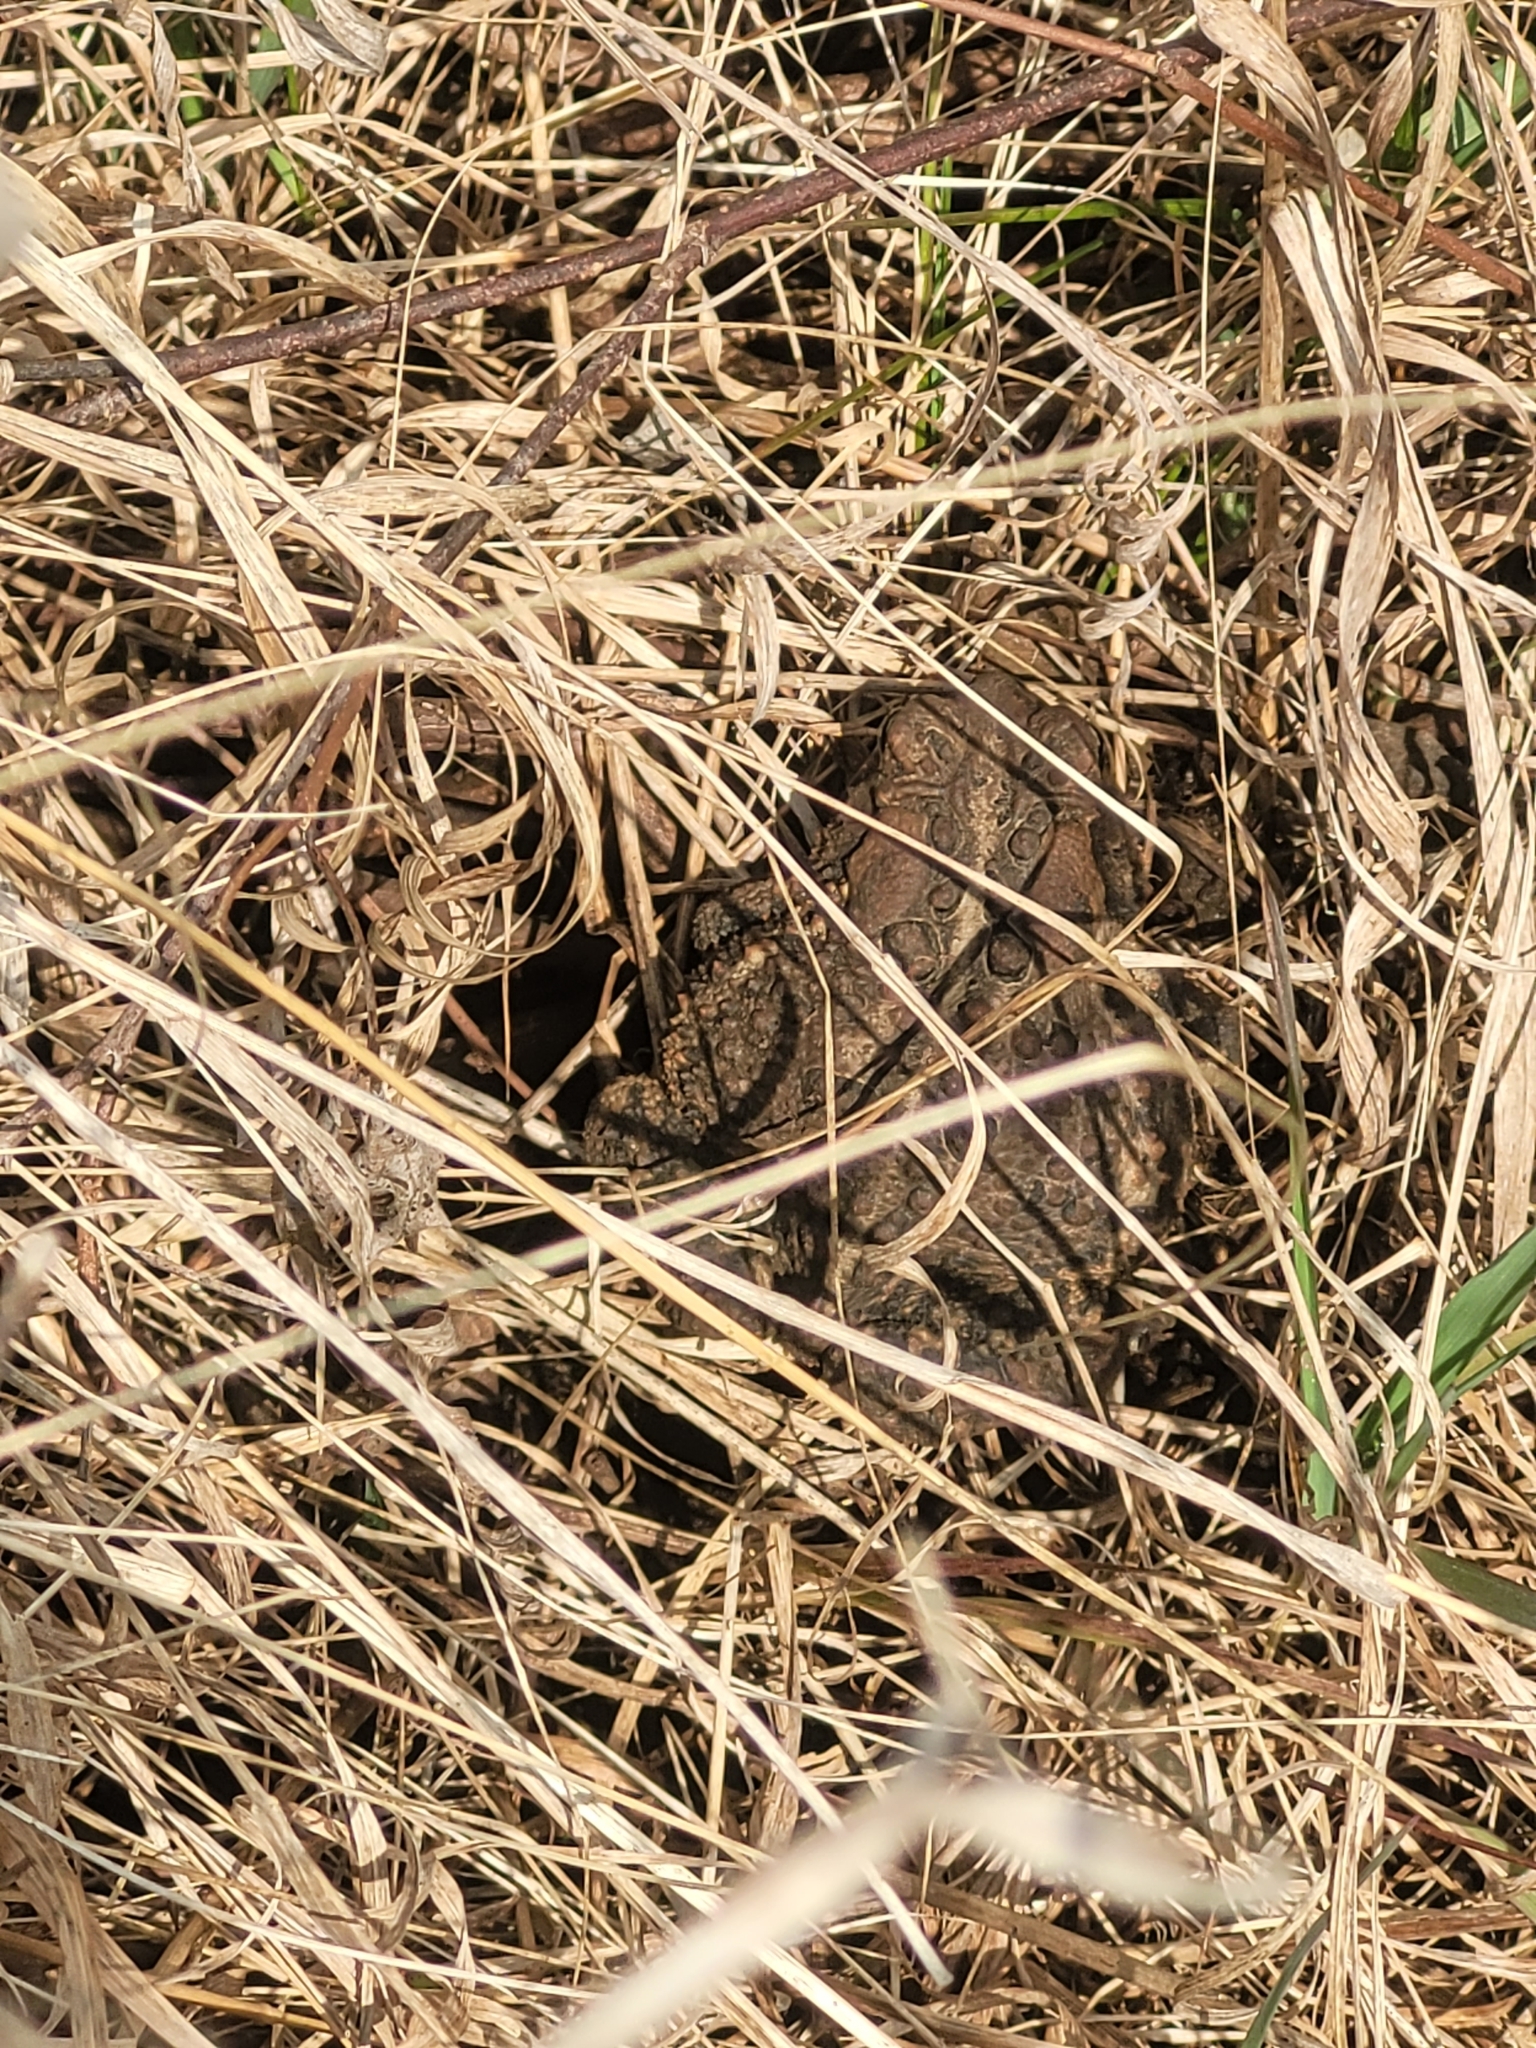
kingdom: Animalia
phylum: Chordata
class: Amphibia
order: Anura
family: Bufonidae
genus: Anaxyrus
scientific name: Anaxyrus americanus
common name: American toad
